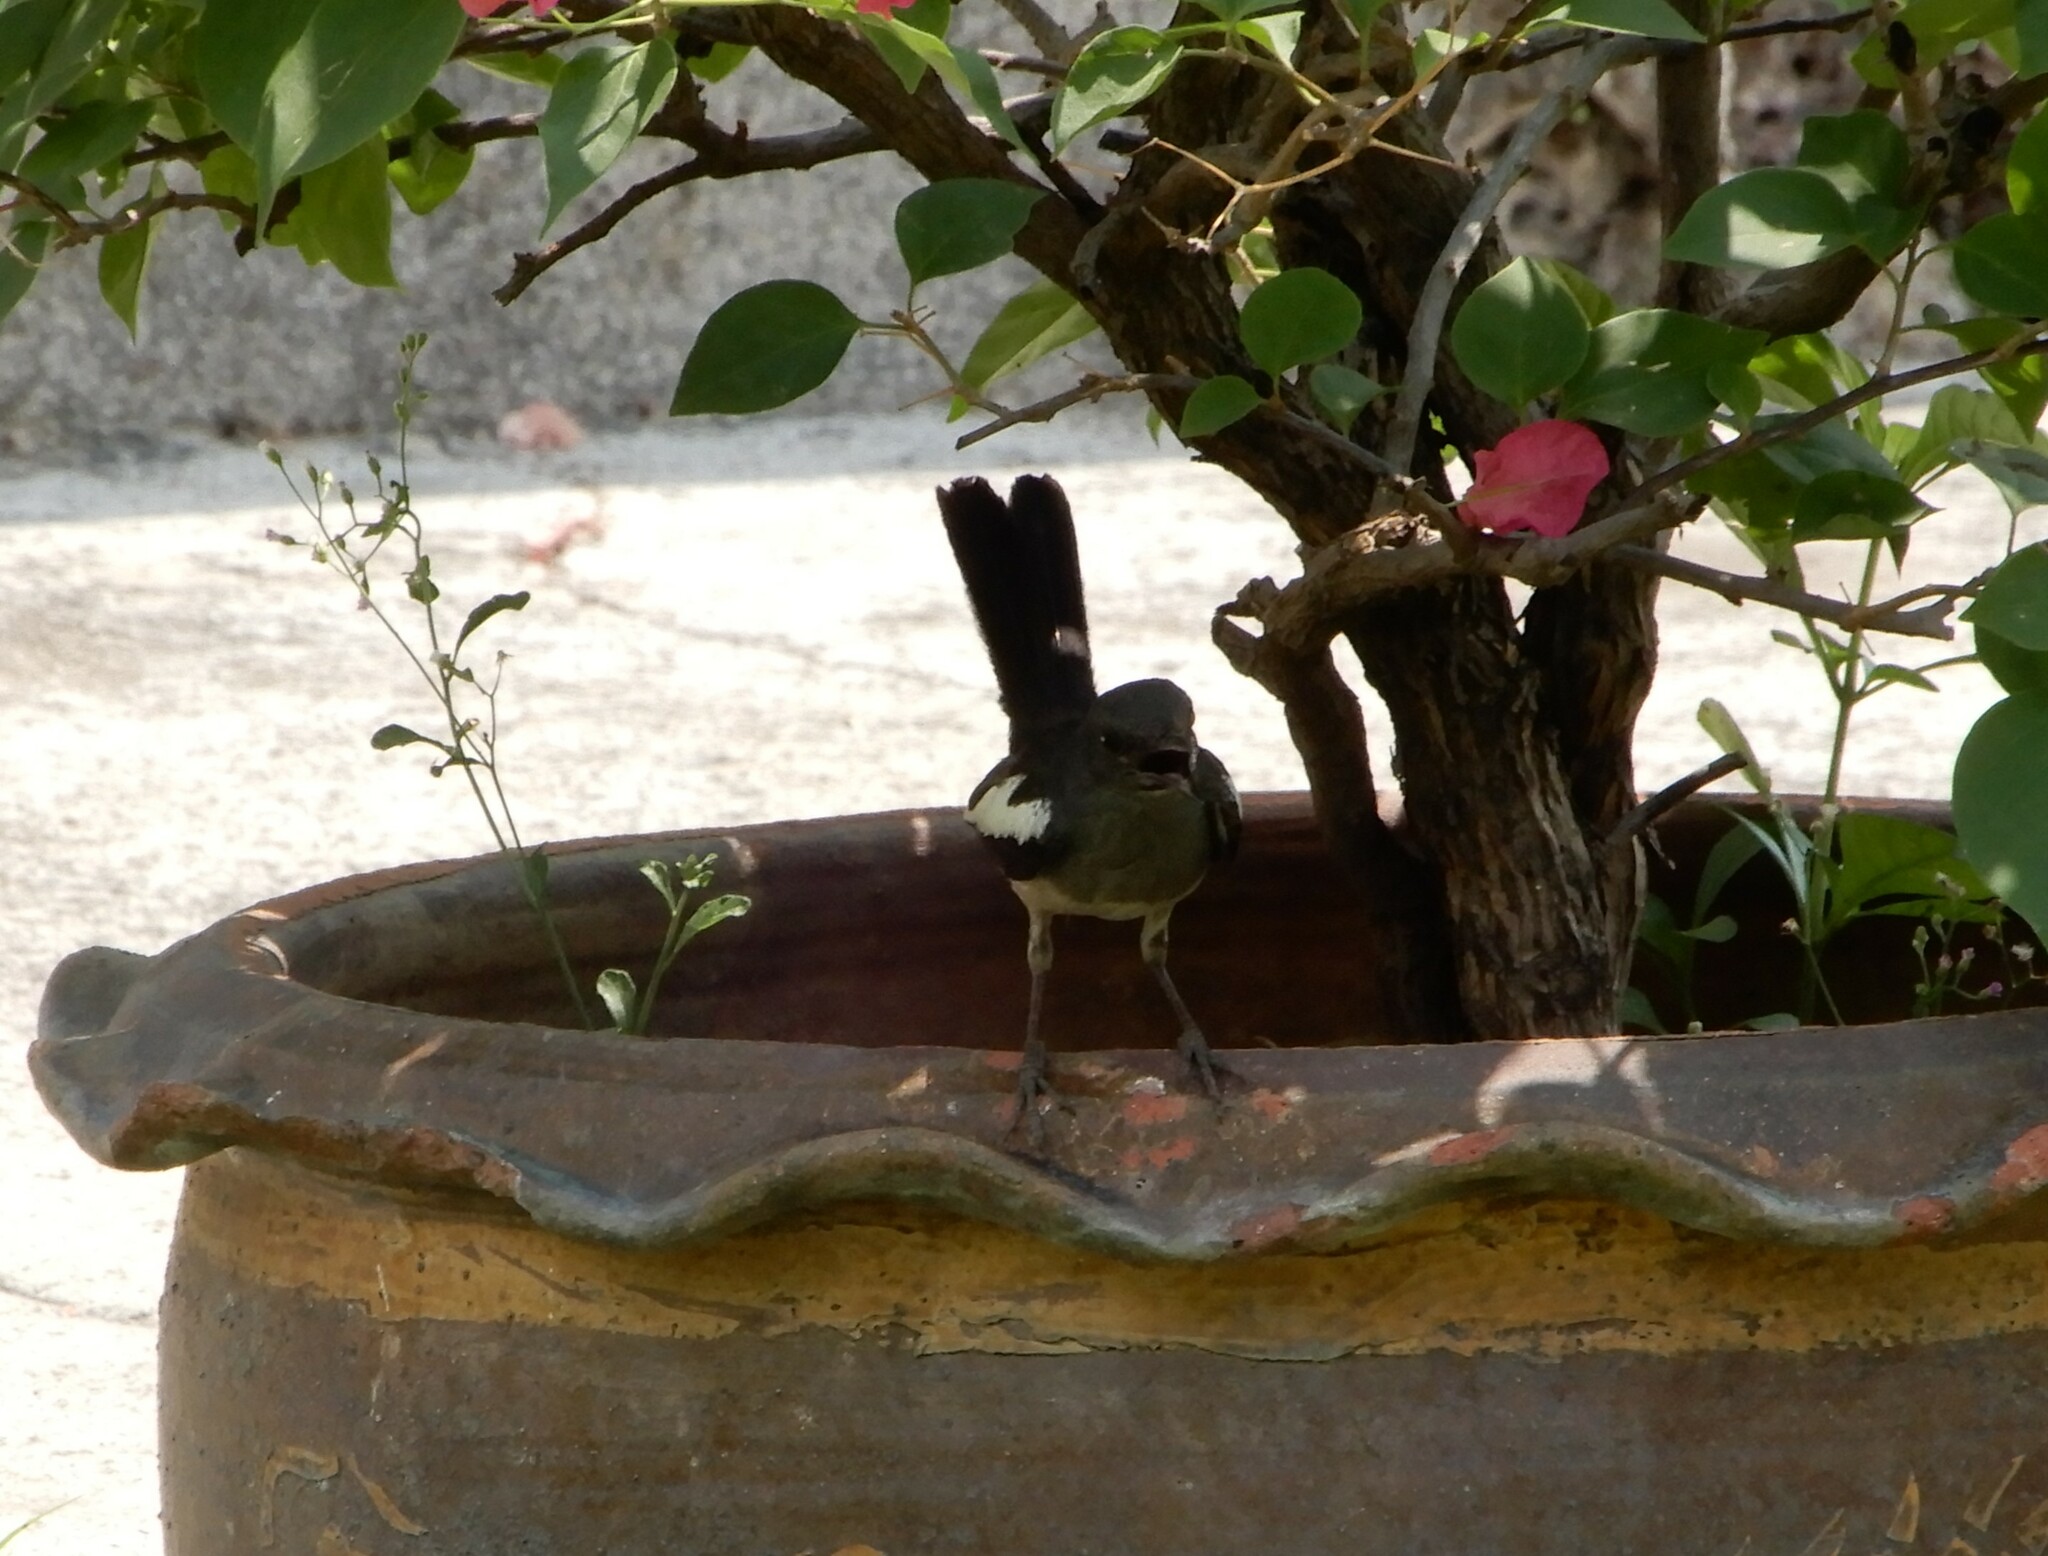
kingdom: Animalia
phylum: Chordata
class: Aves
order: Passeriformes
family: Muscicapidae
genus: Copsychus
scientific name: Copsychus saularis
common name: Oriental magpie-robin
